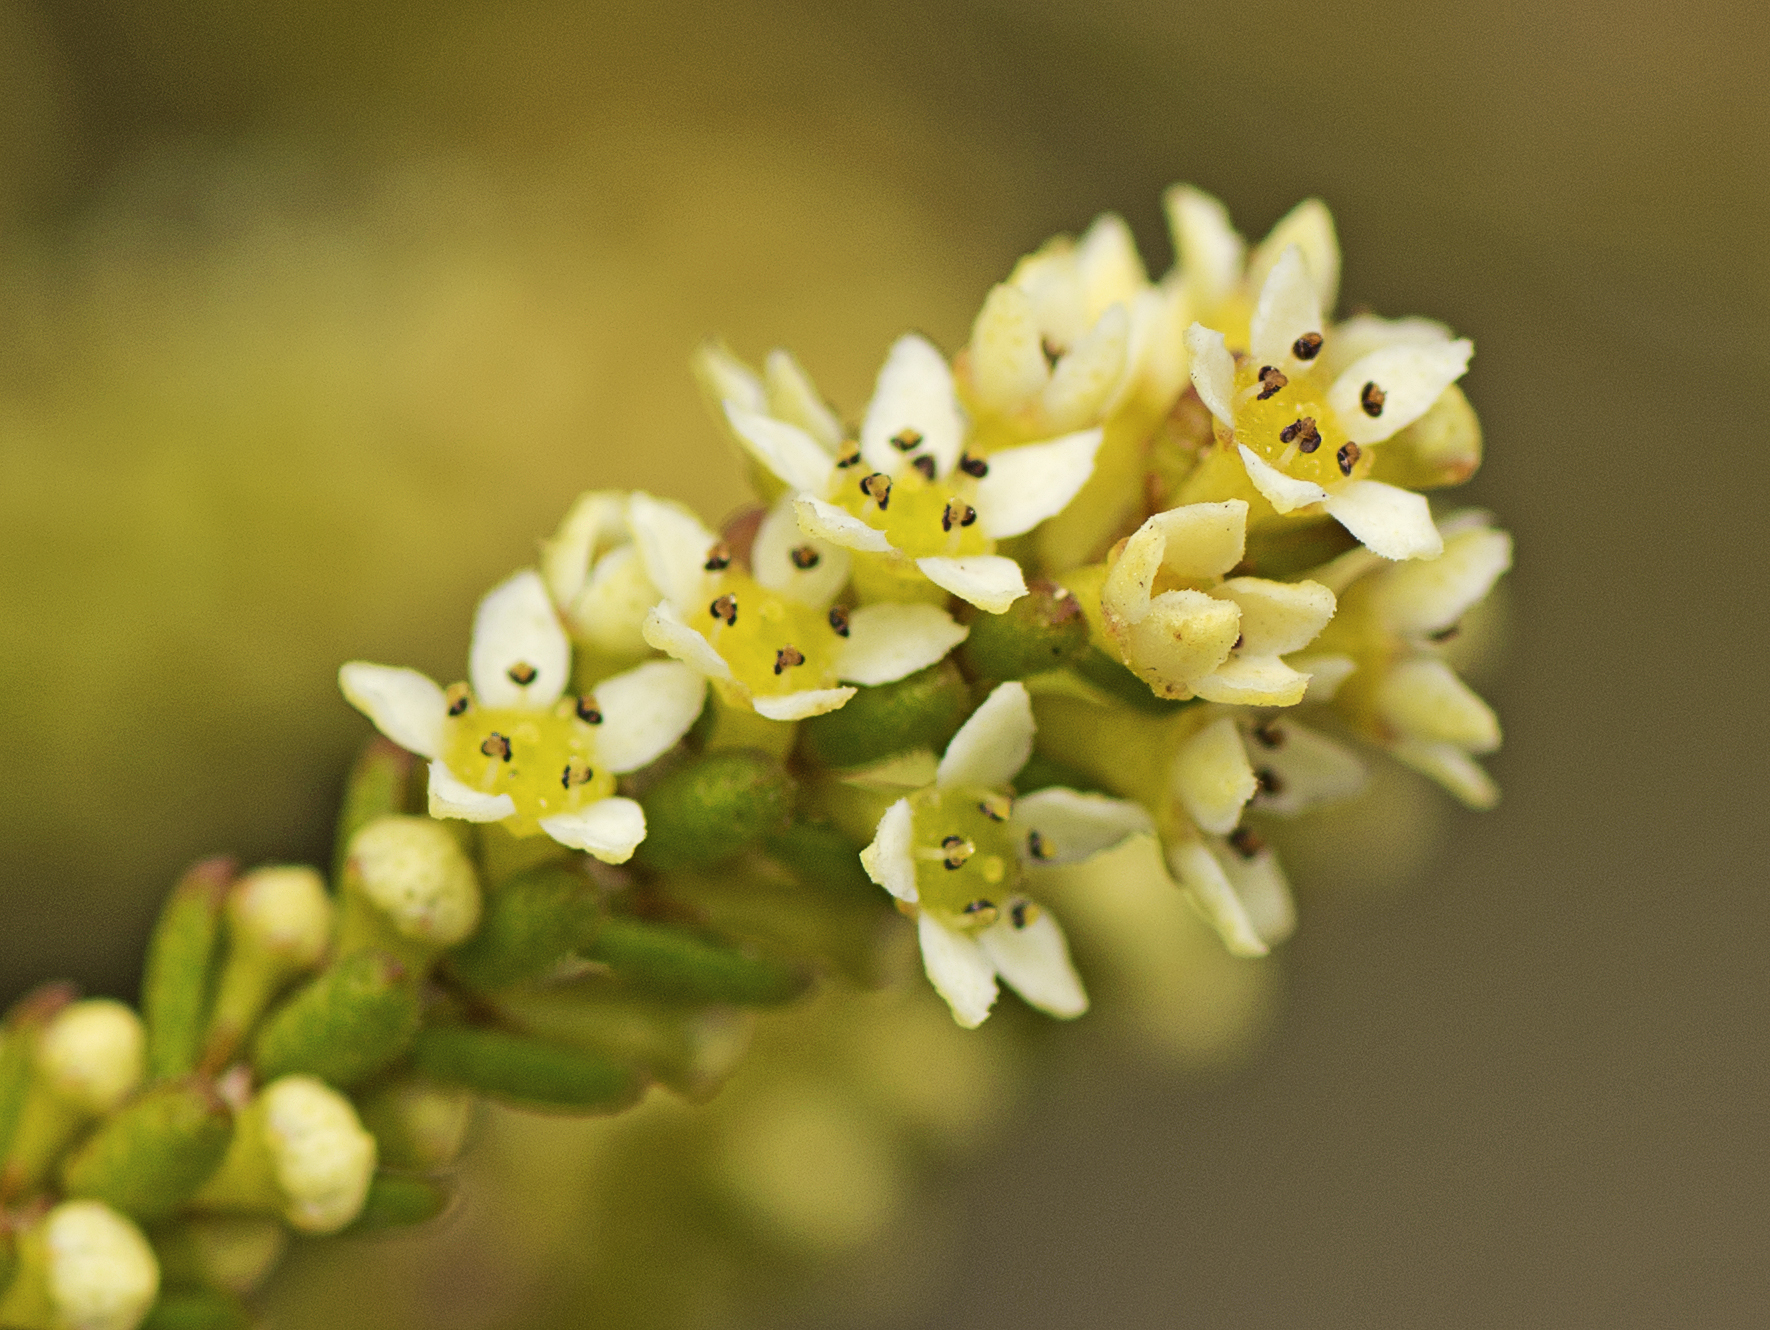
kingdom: Plantae
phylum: Tracheophyta
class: Magnoliopsida
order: Myrtales
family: Myrtaceae
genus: Micromyrtus
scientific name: Micromyrtus littoralis
